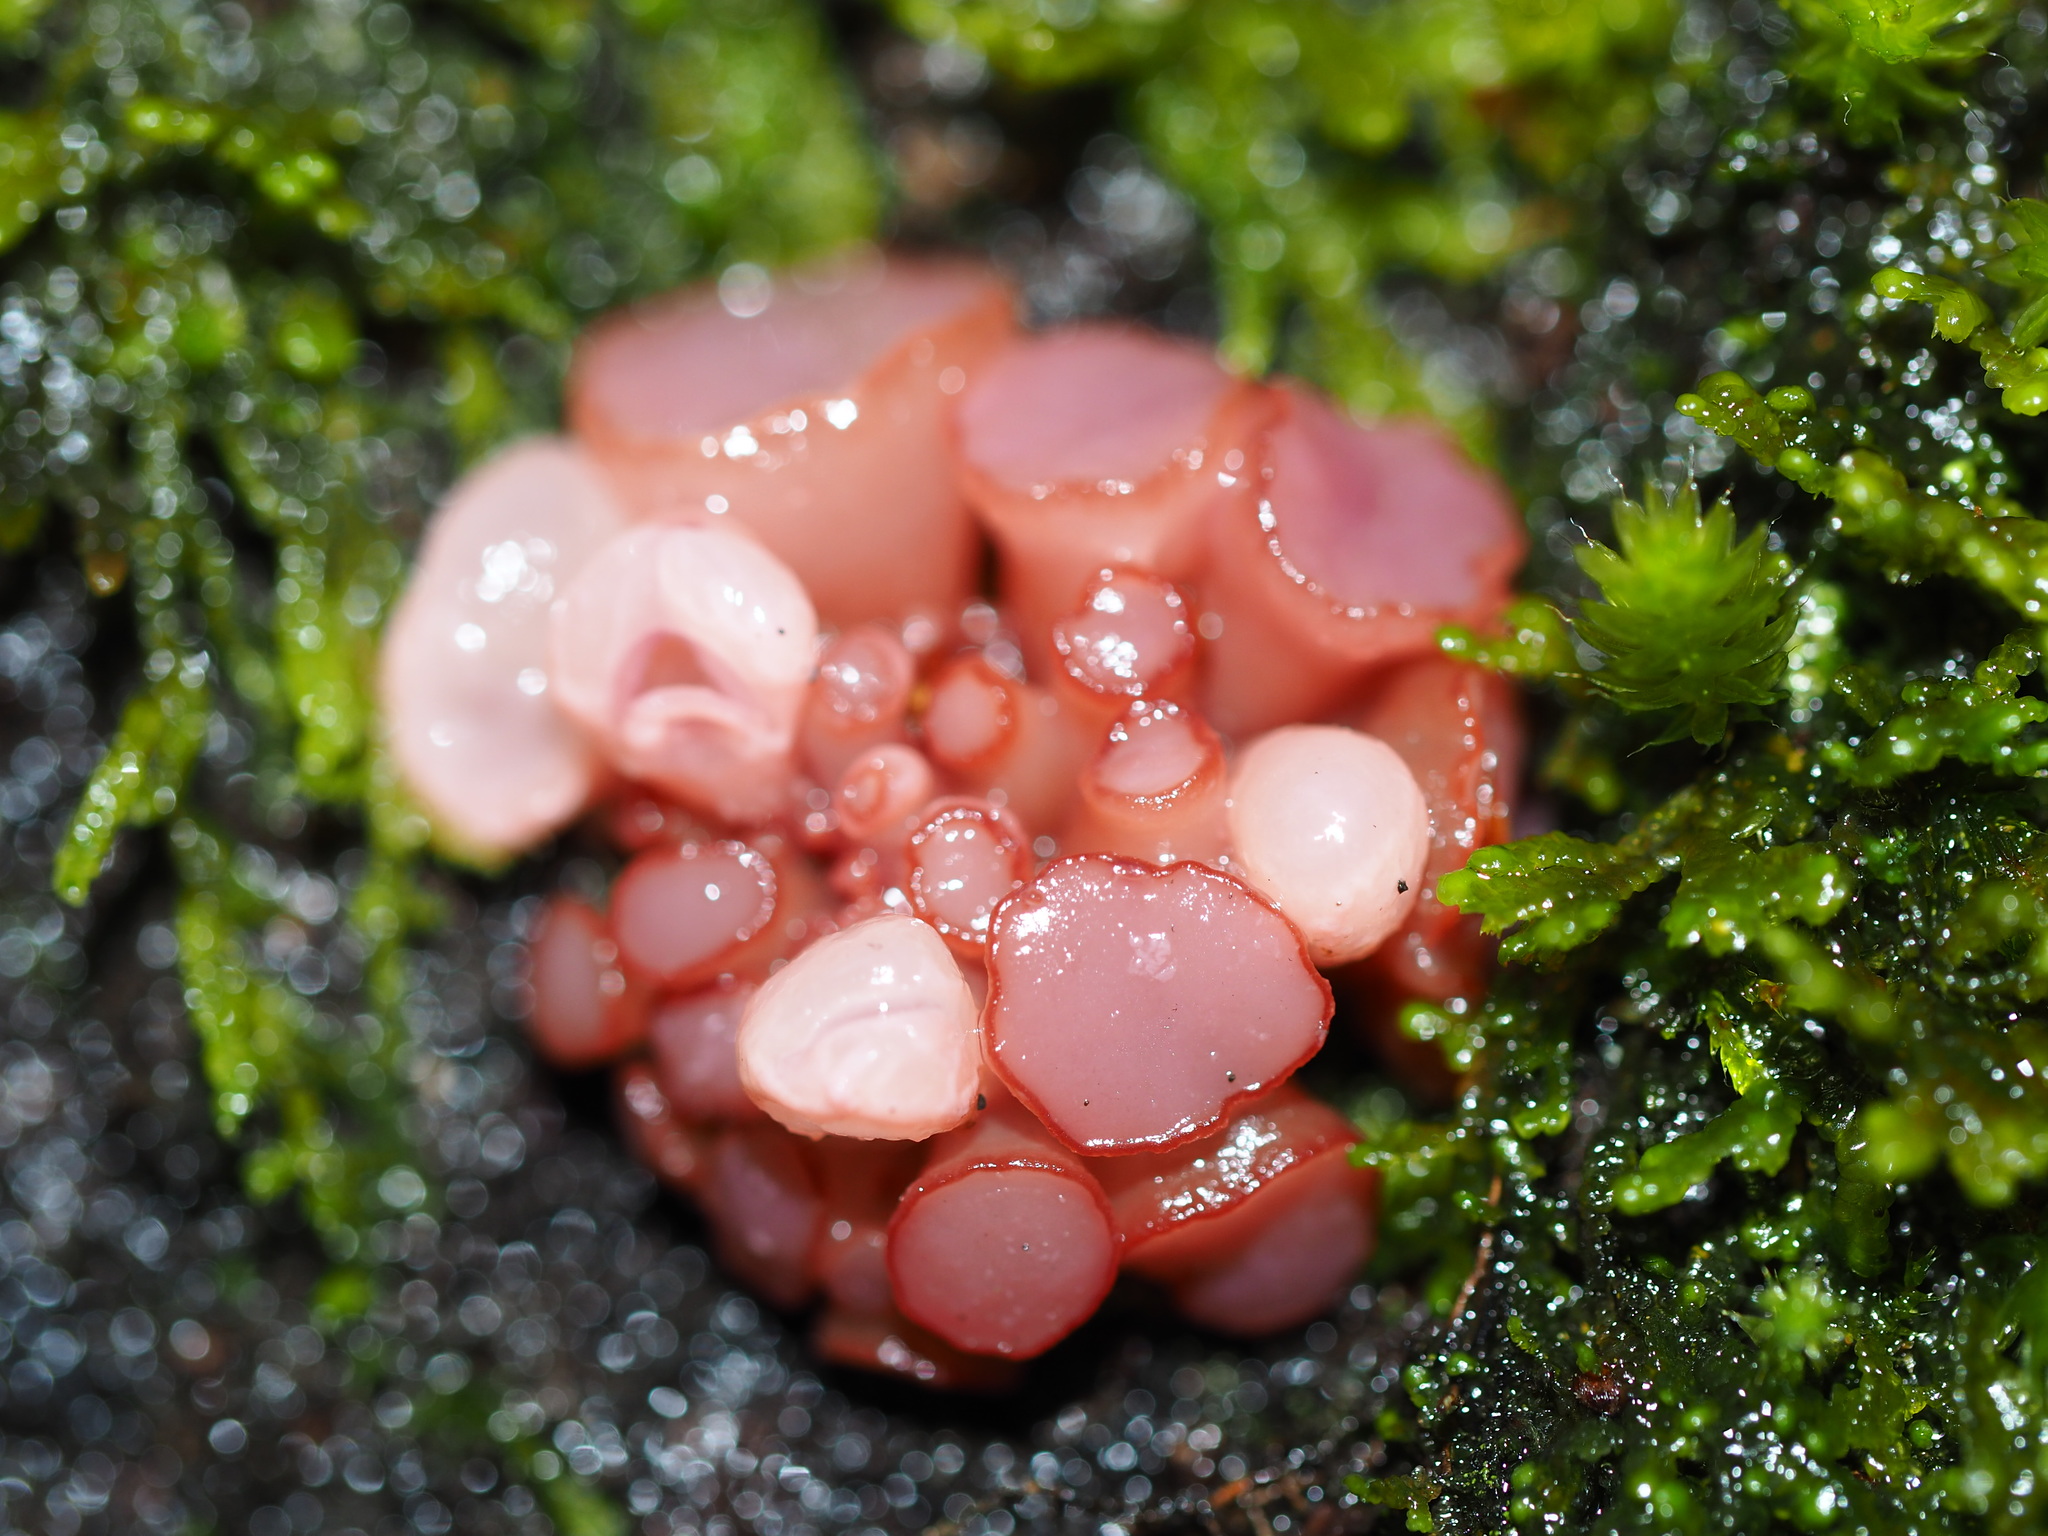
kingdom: Fungi
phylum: Ascomycota
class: Leotiomycetes
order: Helotiales
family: Gelatinodiscaceae
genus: Ascocoryne
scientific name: Ascocoryne sarcoides
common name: Purple jellydisc
